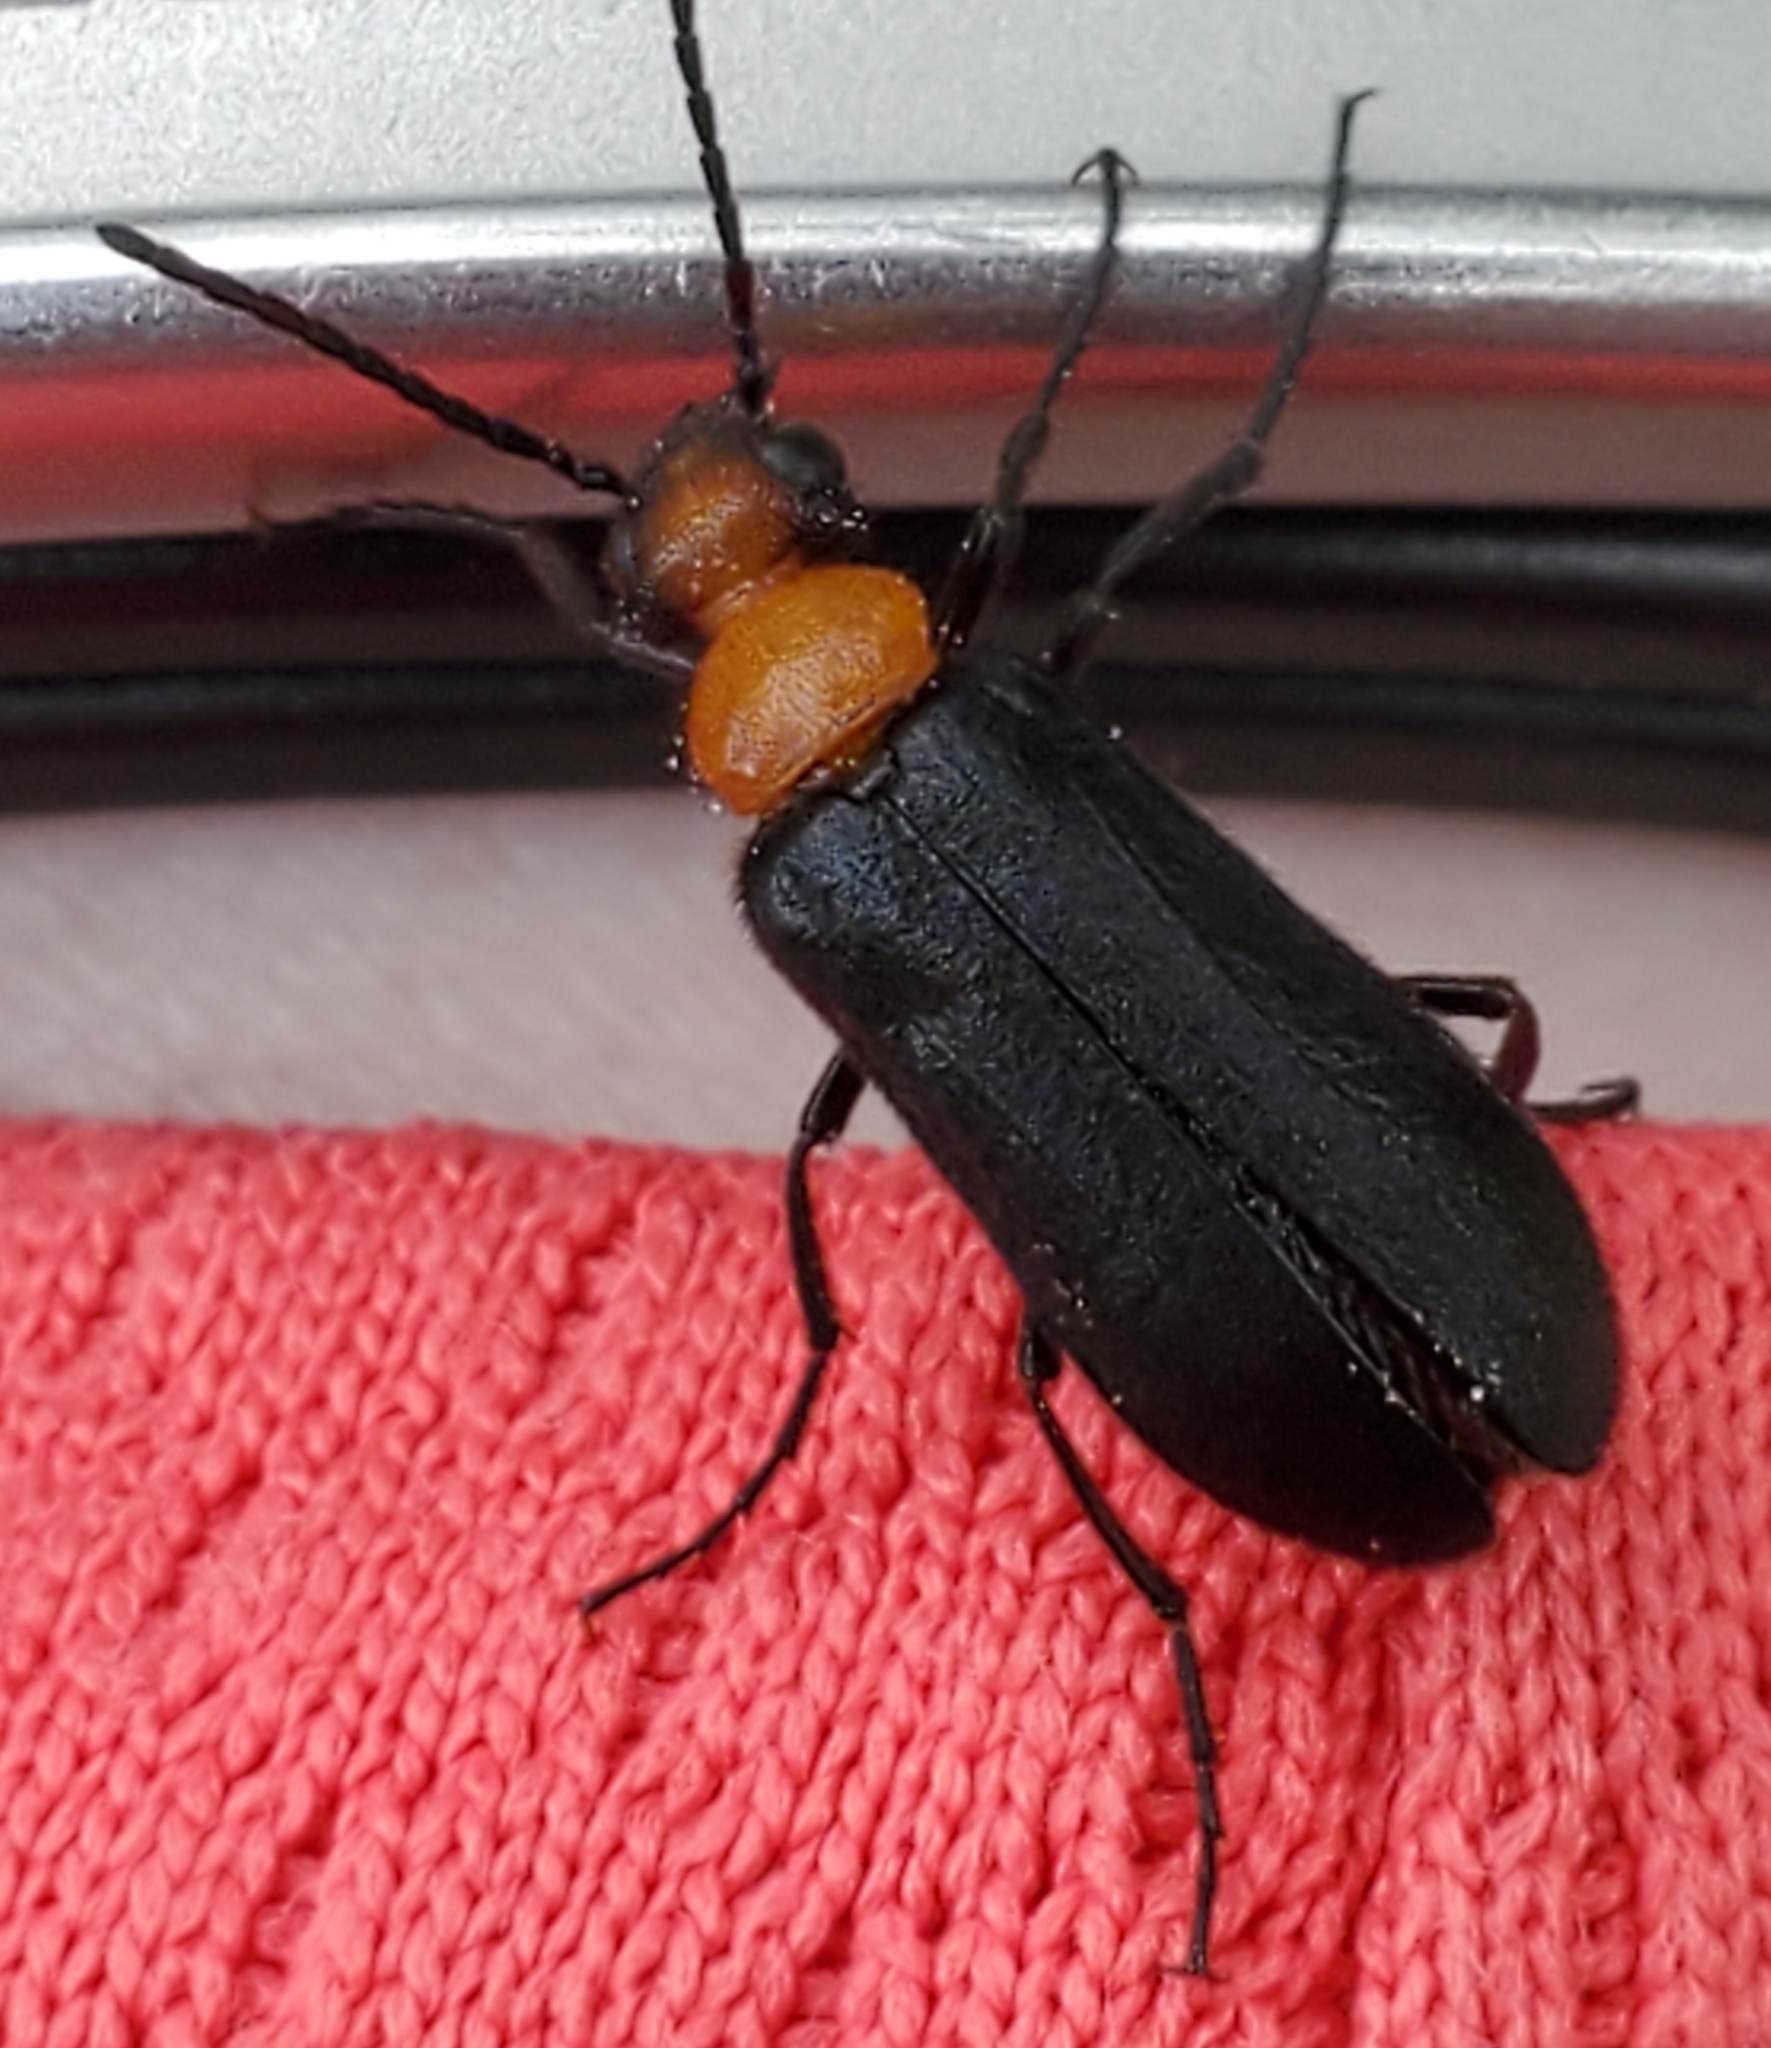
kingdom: Animalia
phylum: Arthropoda
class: Insecta
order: Coleoptera
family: Meloidae
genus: Nemognatha
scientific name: Nemognatha nemorensis
